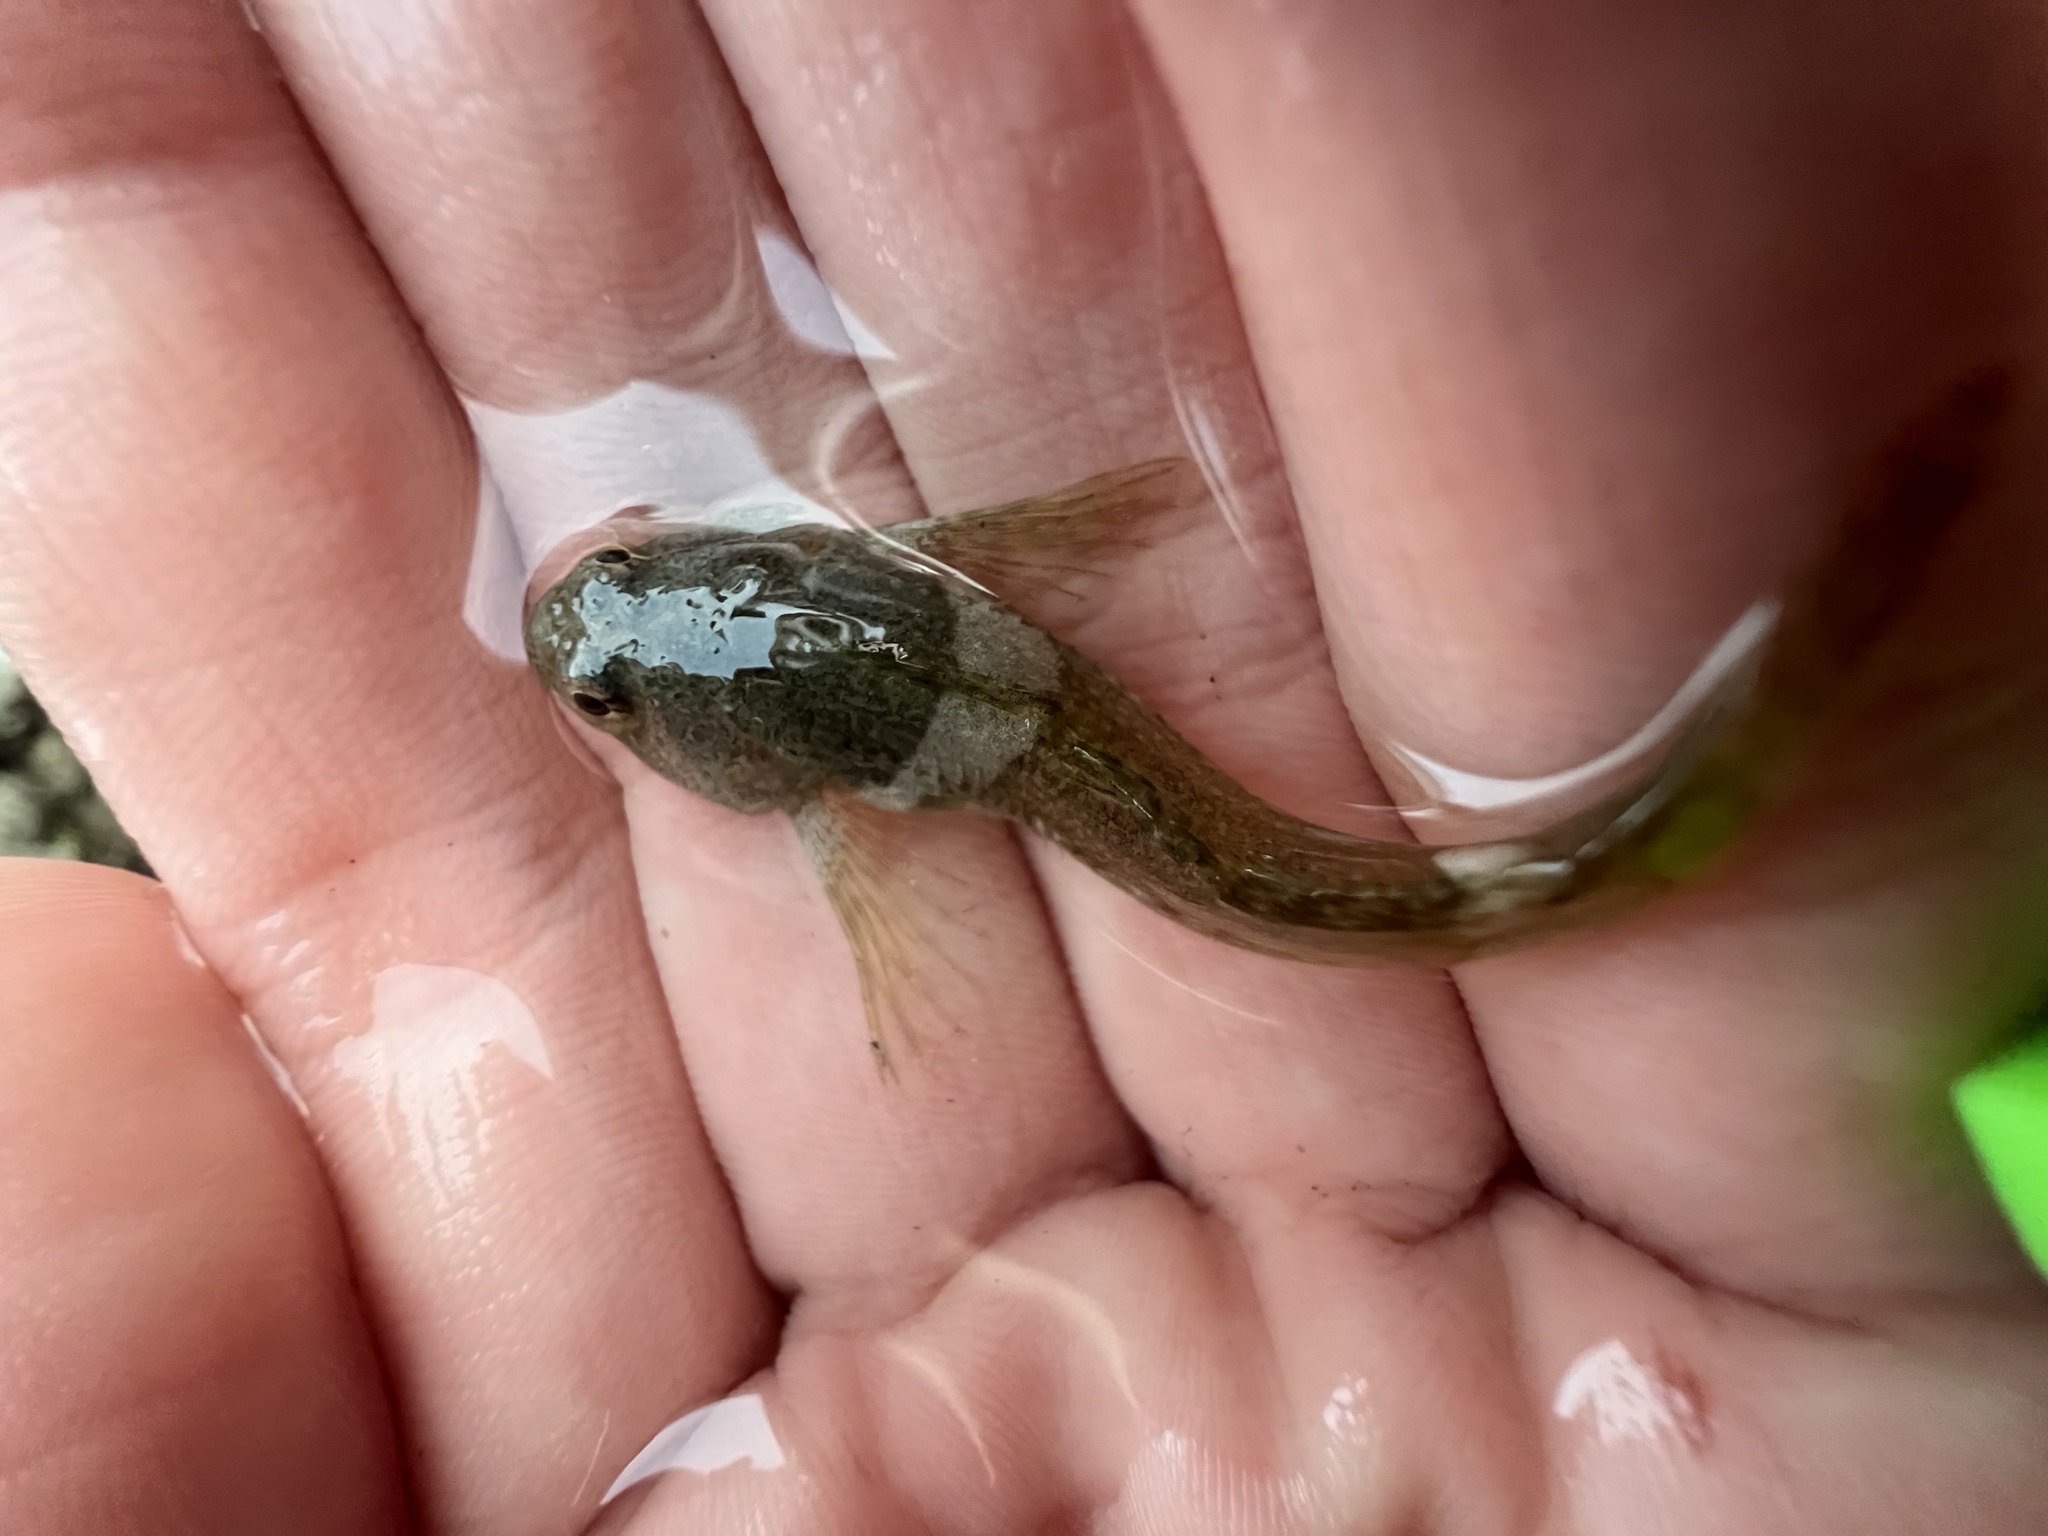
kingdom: Animalia
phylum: Chordata
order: Scorpaeniformes
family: Cottidae
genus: Oligocottus
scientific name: Oligocottus maculosus
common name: Tidepool sculpin
